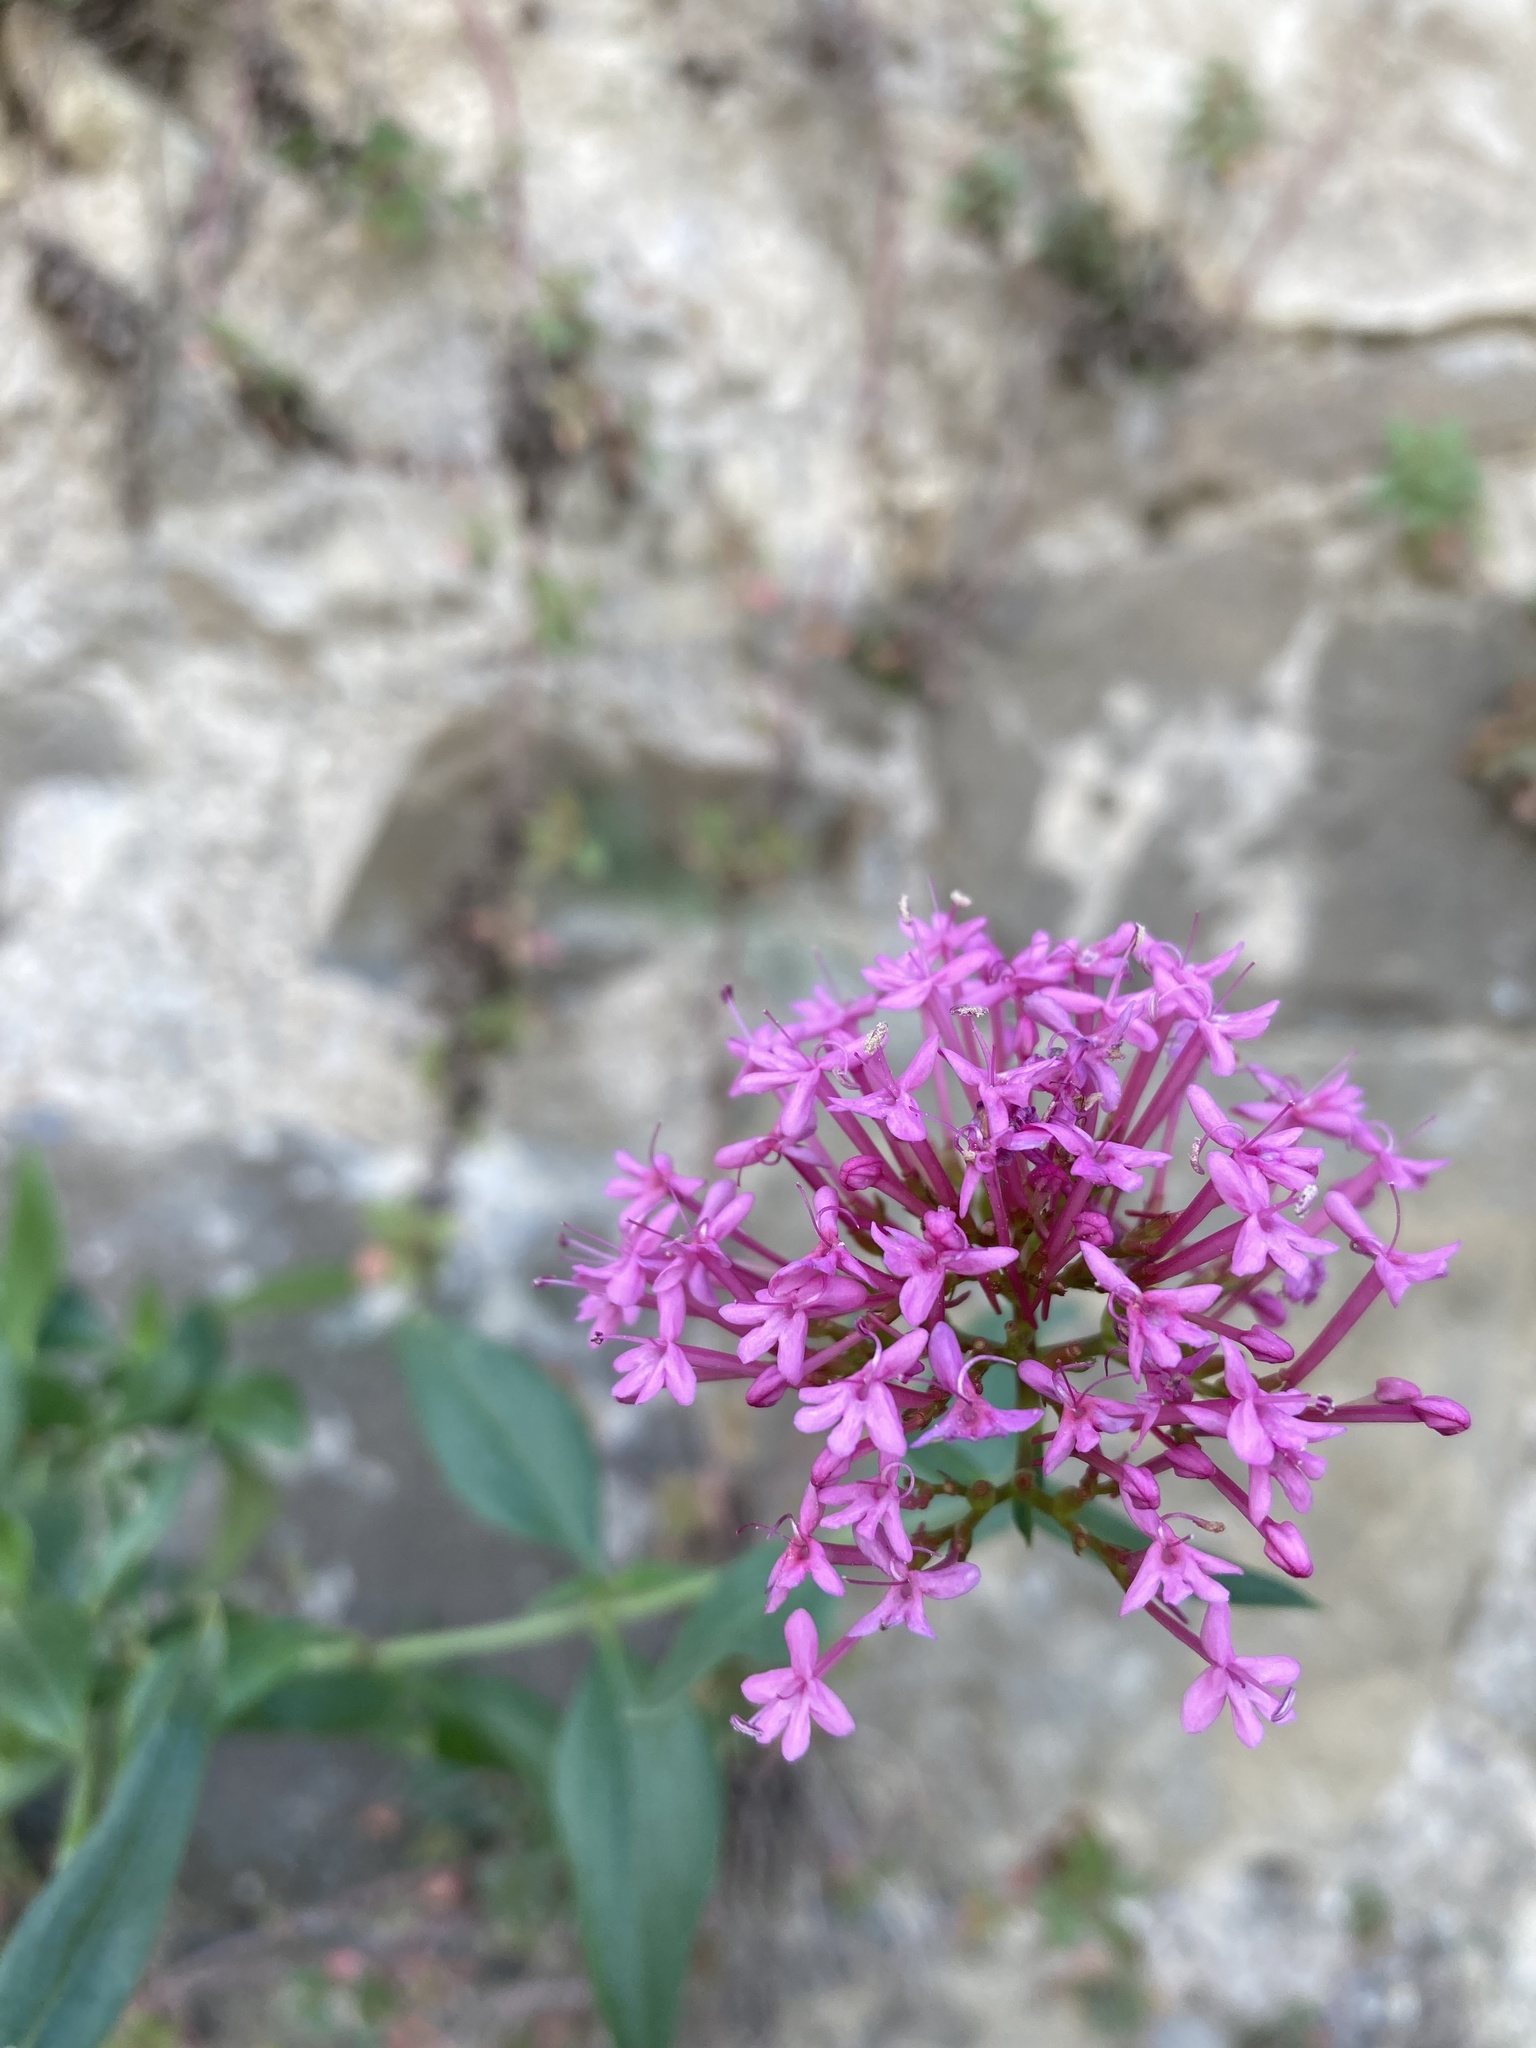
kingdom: Plantae
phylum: Tracheophyta
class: Magnoliopsida
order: Dipsacales
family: Caprifoliaceae
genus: Centranthus
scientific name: Centranthus ruber
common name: Red valerian
